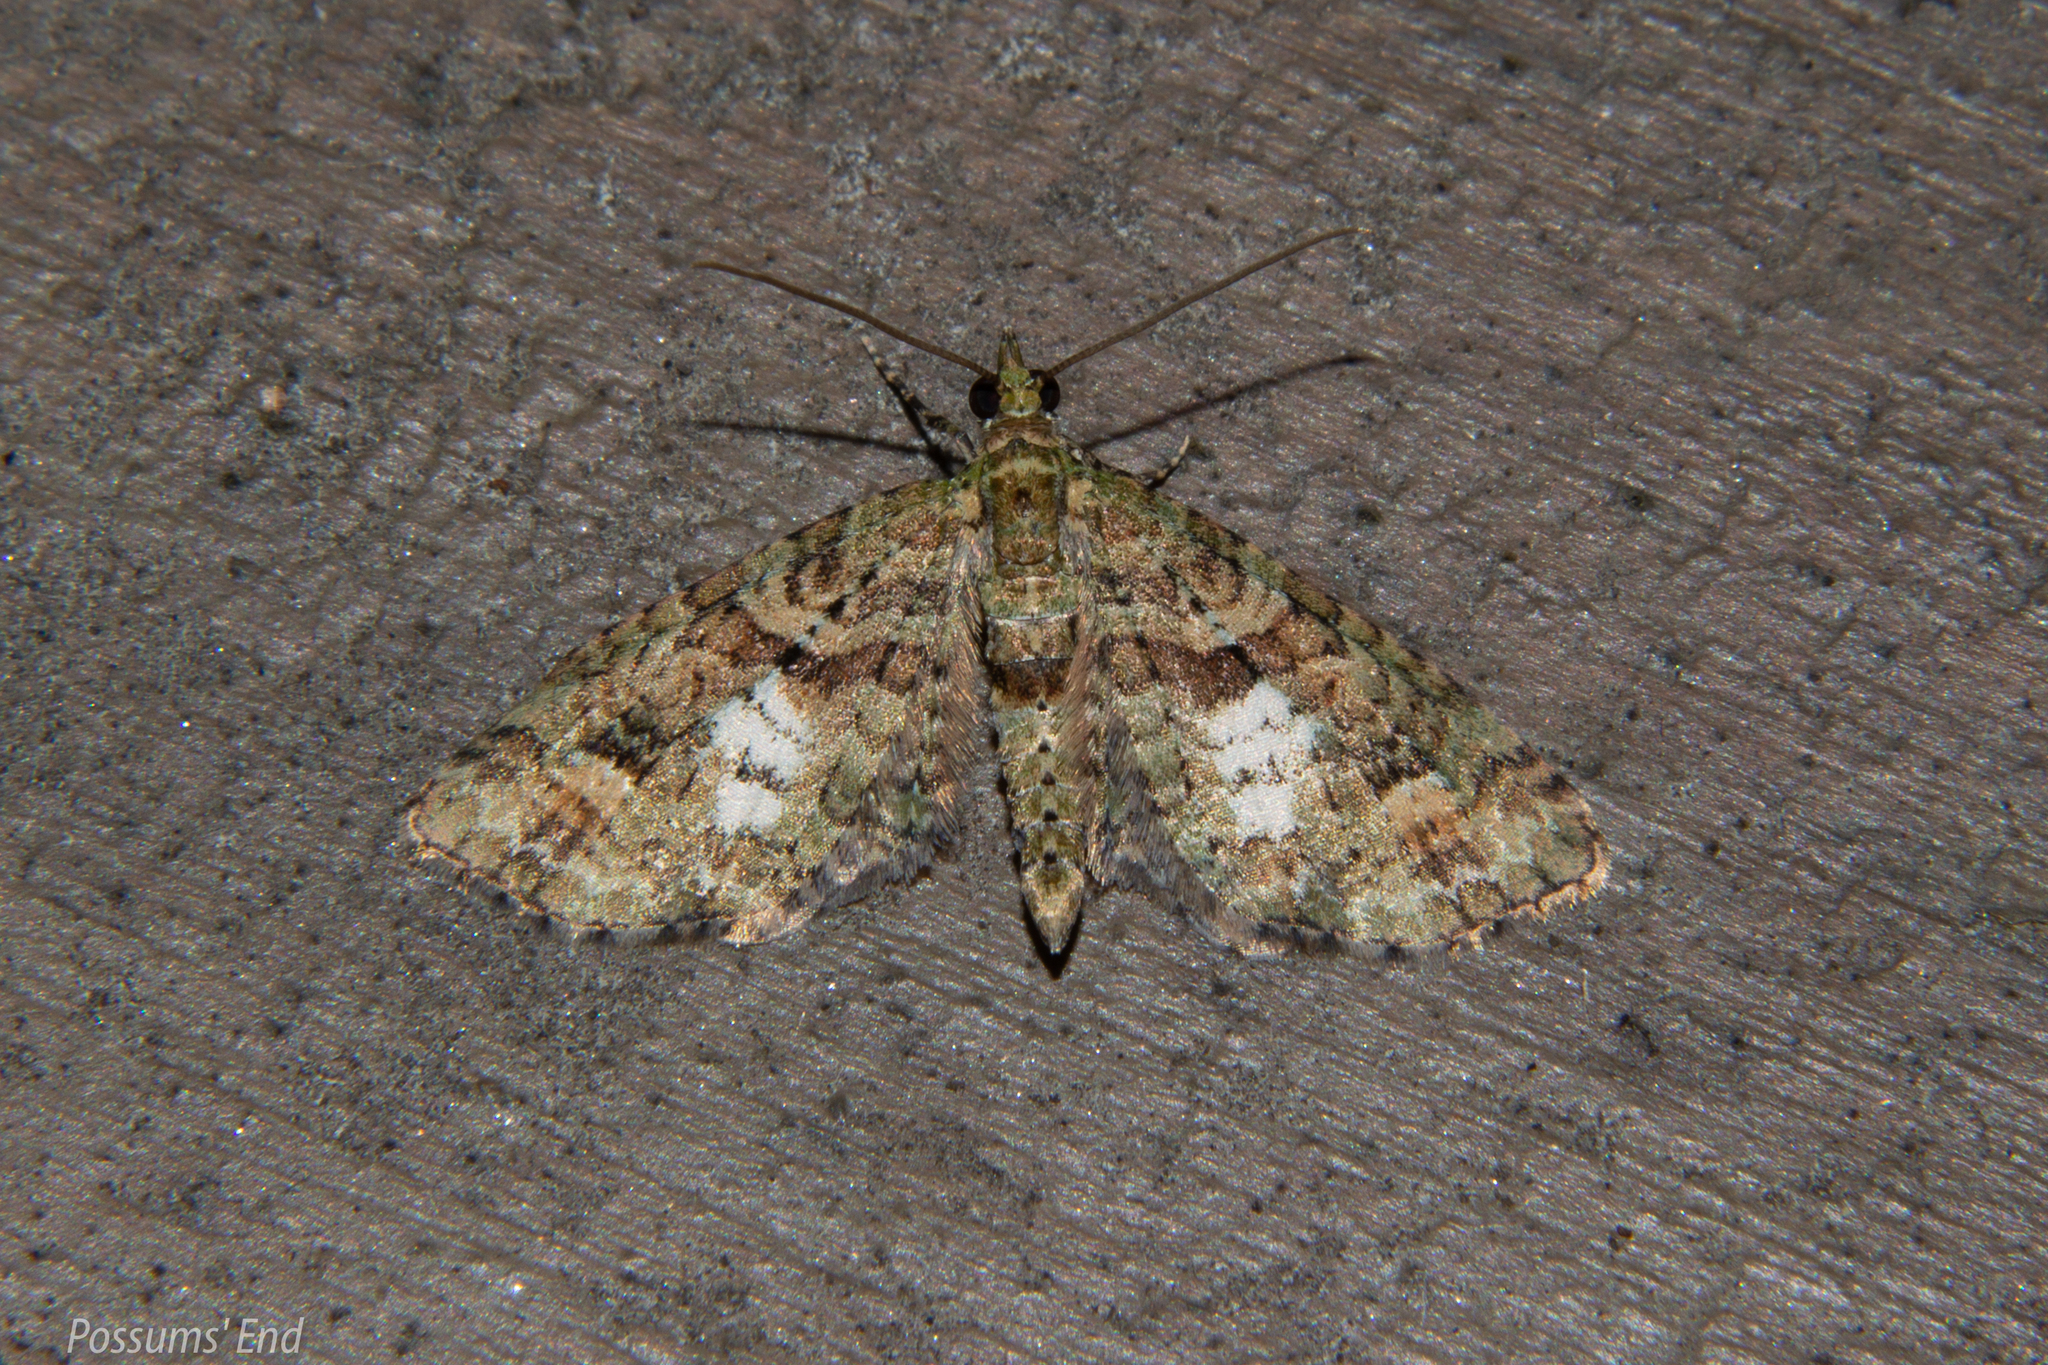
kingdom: Animalia
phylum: Arthropoda
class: Insecta
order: Lepidoptera
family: Geometridae
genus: Idaea
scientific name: Idaea mutanda
